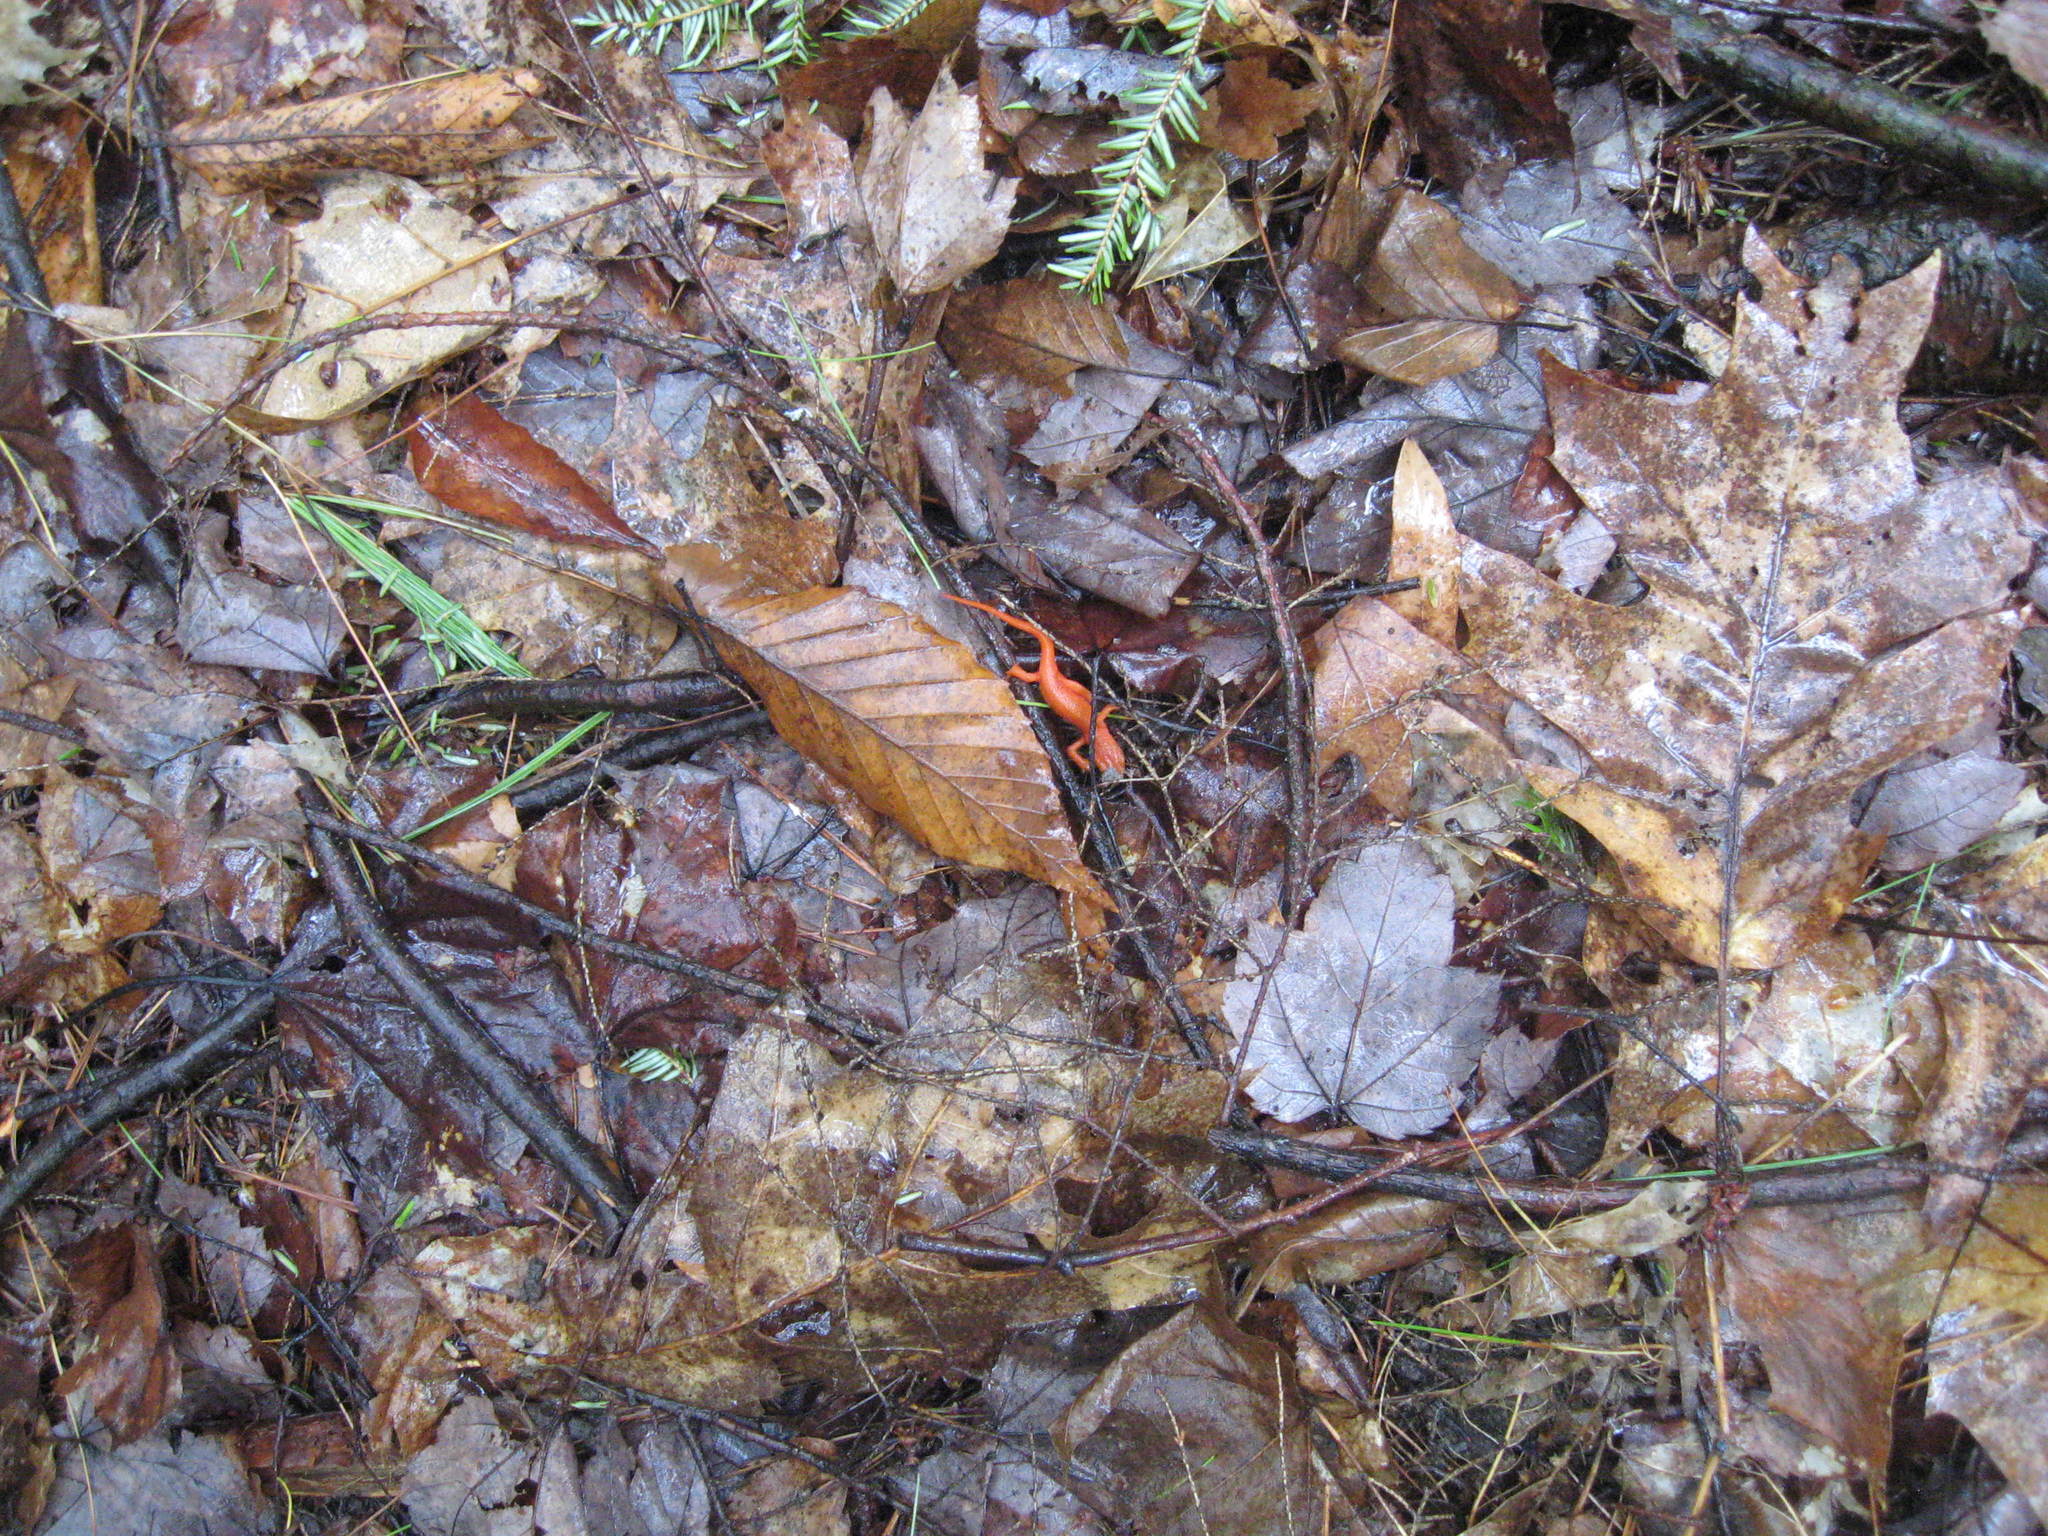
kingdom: Animalia
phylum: Chordata
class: Amphibia
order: Caudata
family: Salamandridae
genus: Notophthalmus
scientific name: Notophthalmus viridescens
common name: Eastern newt
